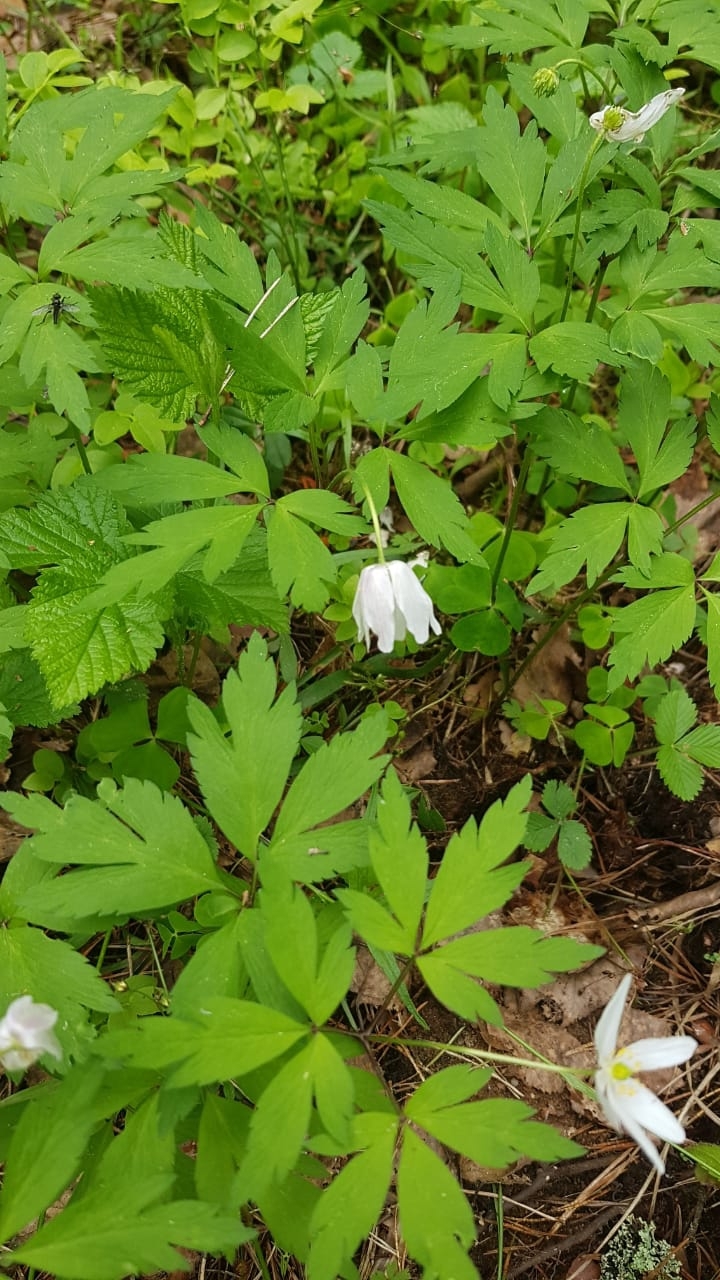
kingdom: Plantae
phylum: Tracheophyta
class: Magnoliopsida
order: Ranunculales
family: Ranunculaceae
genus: Anemone
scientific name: Anemone nemorosa
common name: Wood anemone
